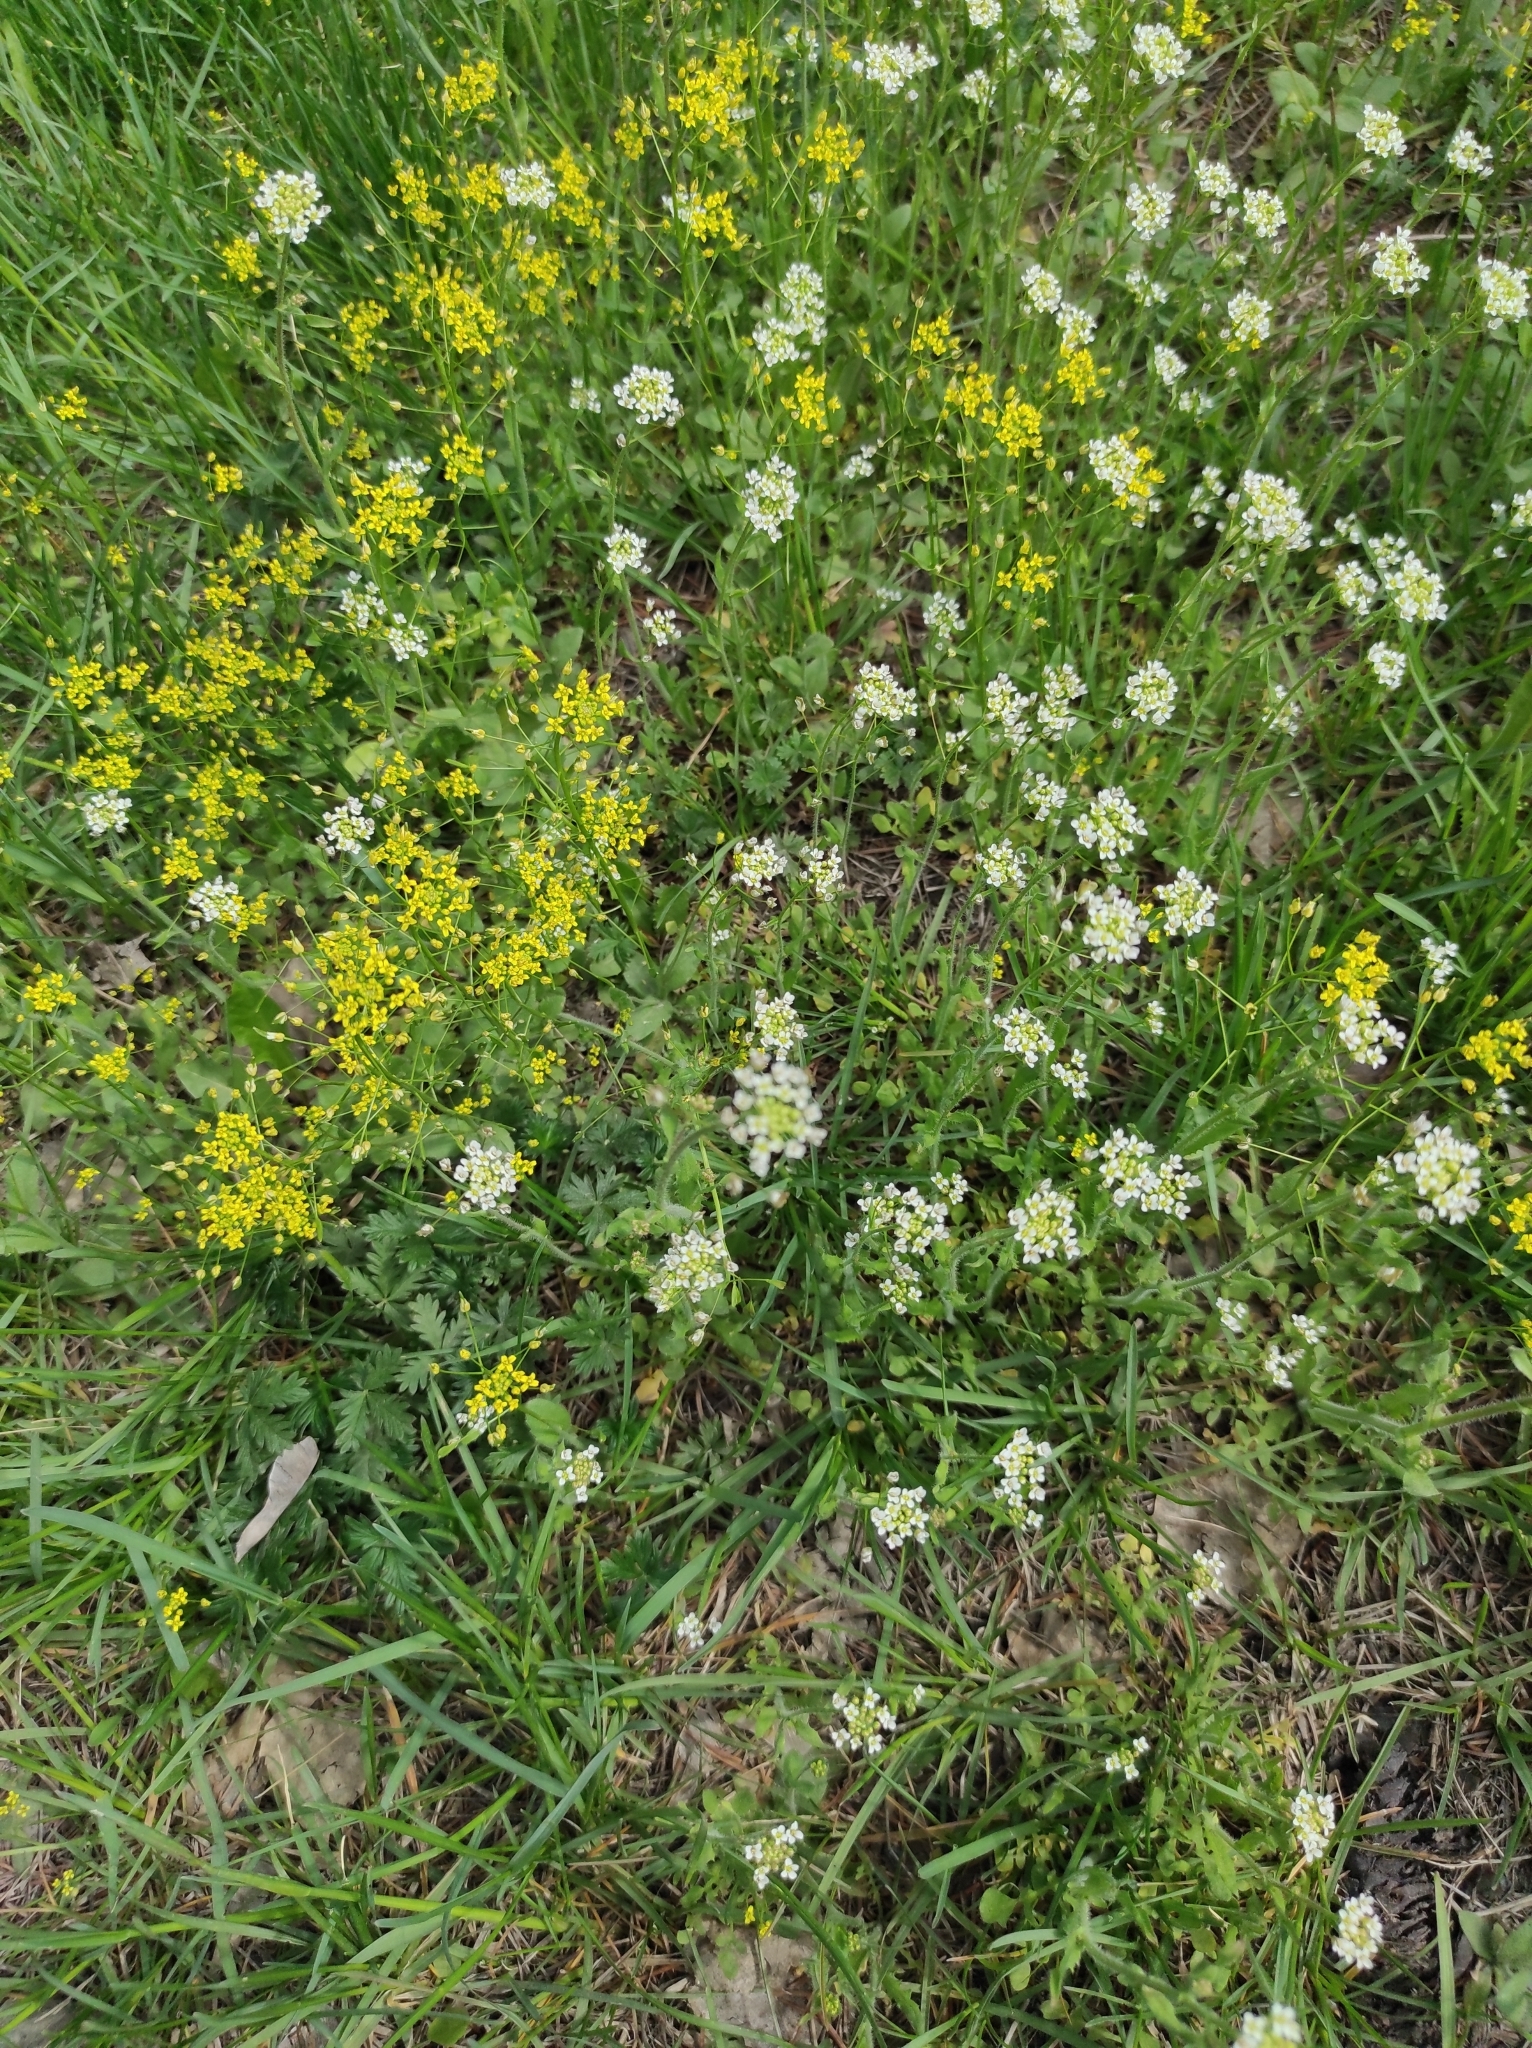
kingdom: Plantae
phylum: Tracheophyta
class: Magnoliopsida
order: Brassicales
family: Brassicaceae
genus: Draba
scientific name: Draba nemorosa
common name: Wood whitlow-grass
